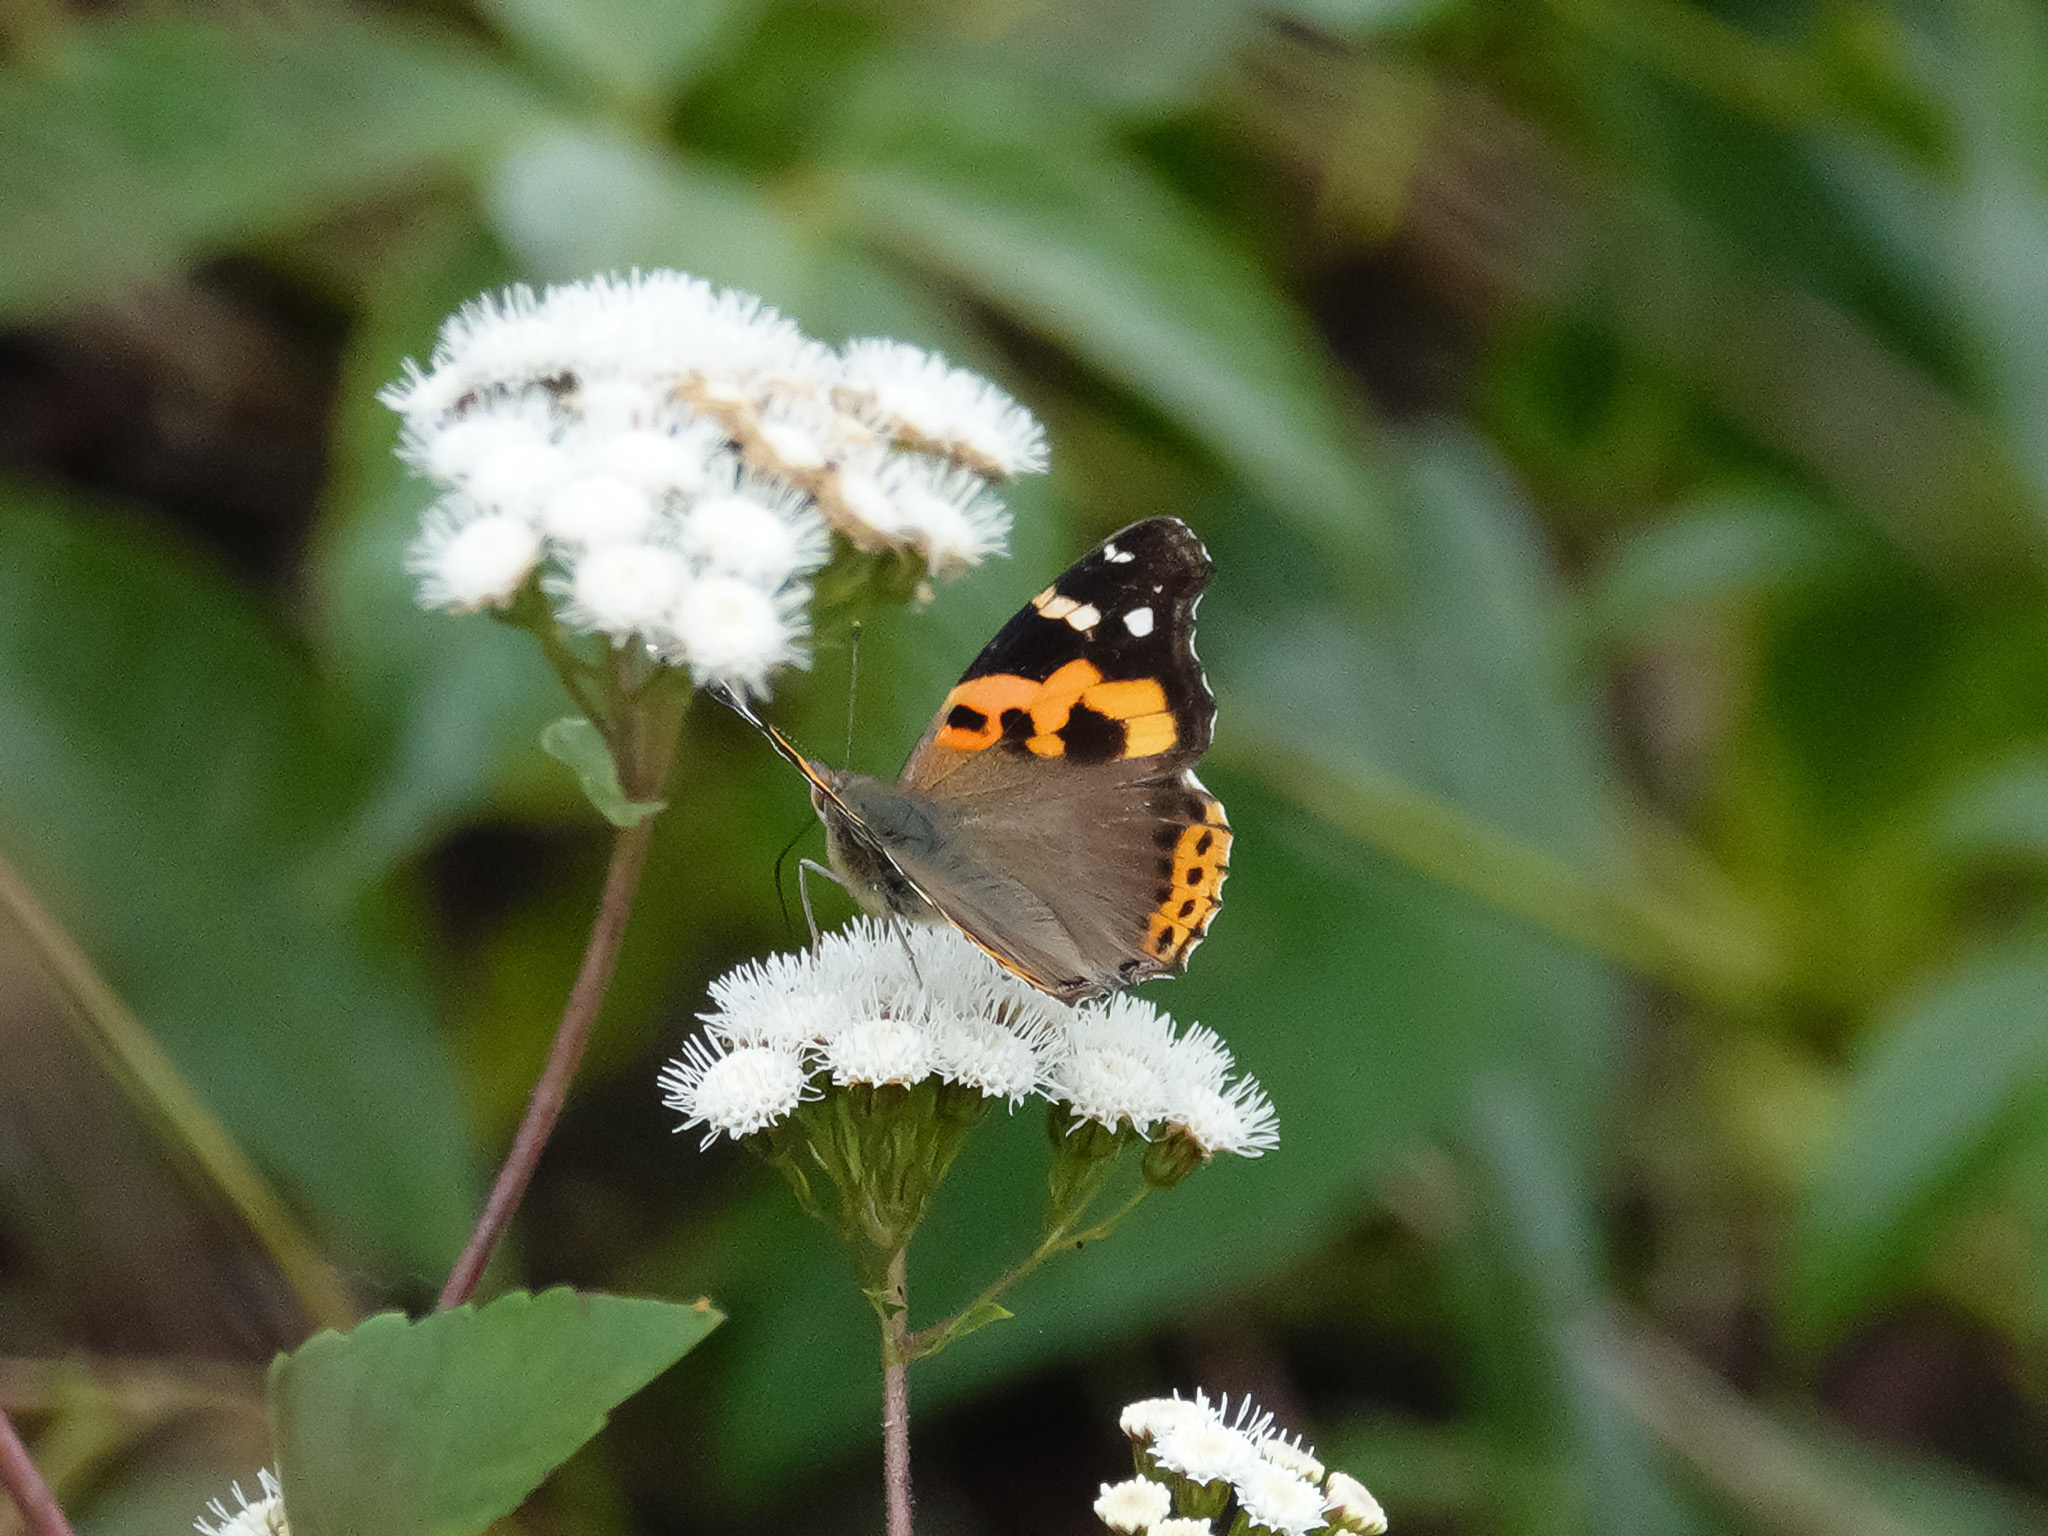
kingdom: Animalia
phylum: Arthropoda
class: Insecta
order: Lepidoptera
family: Nymphalidae
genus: Vanessa
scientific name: Vanessa indica
